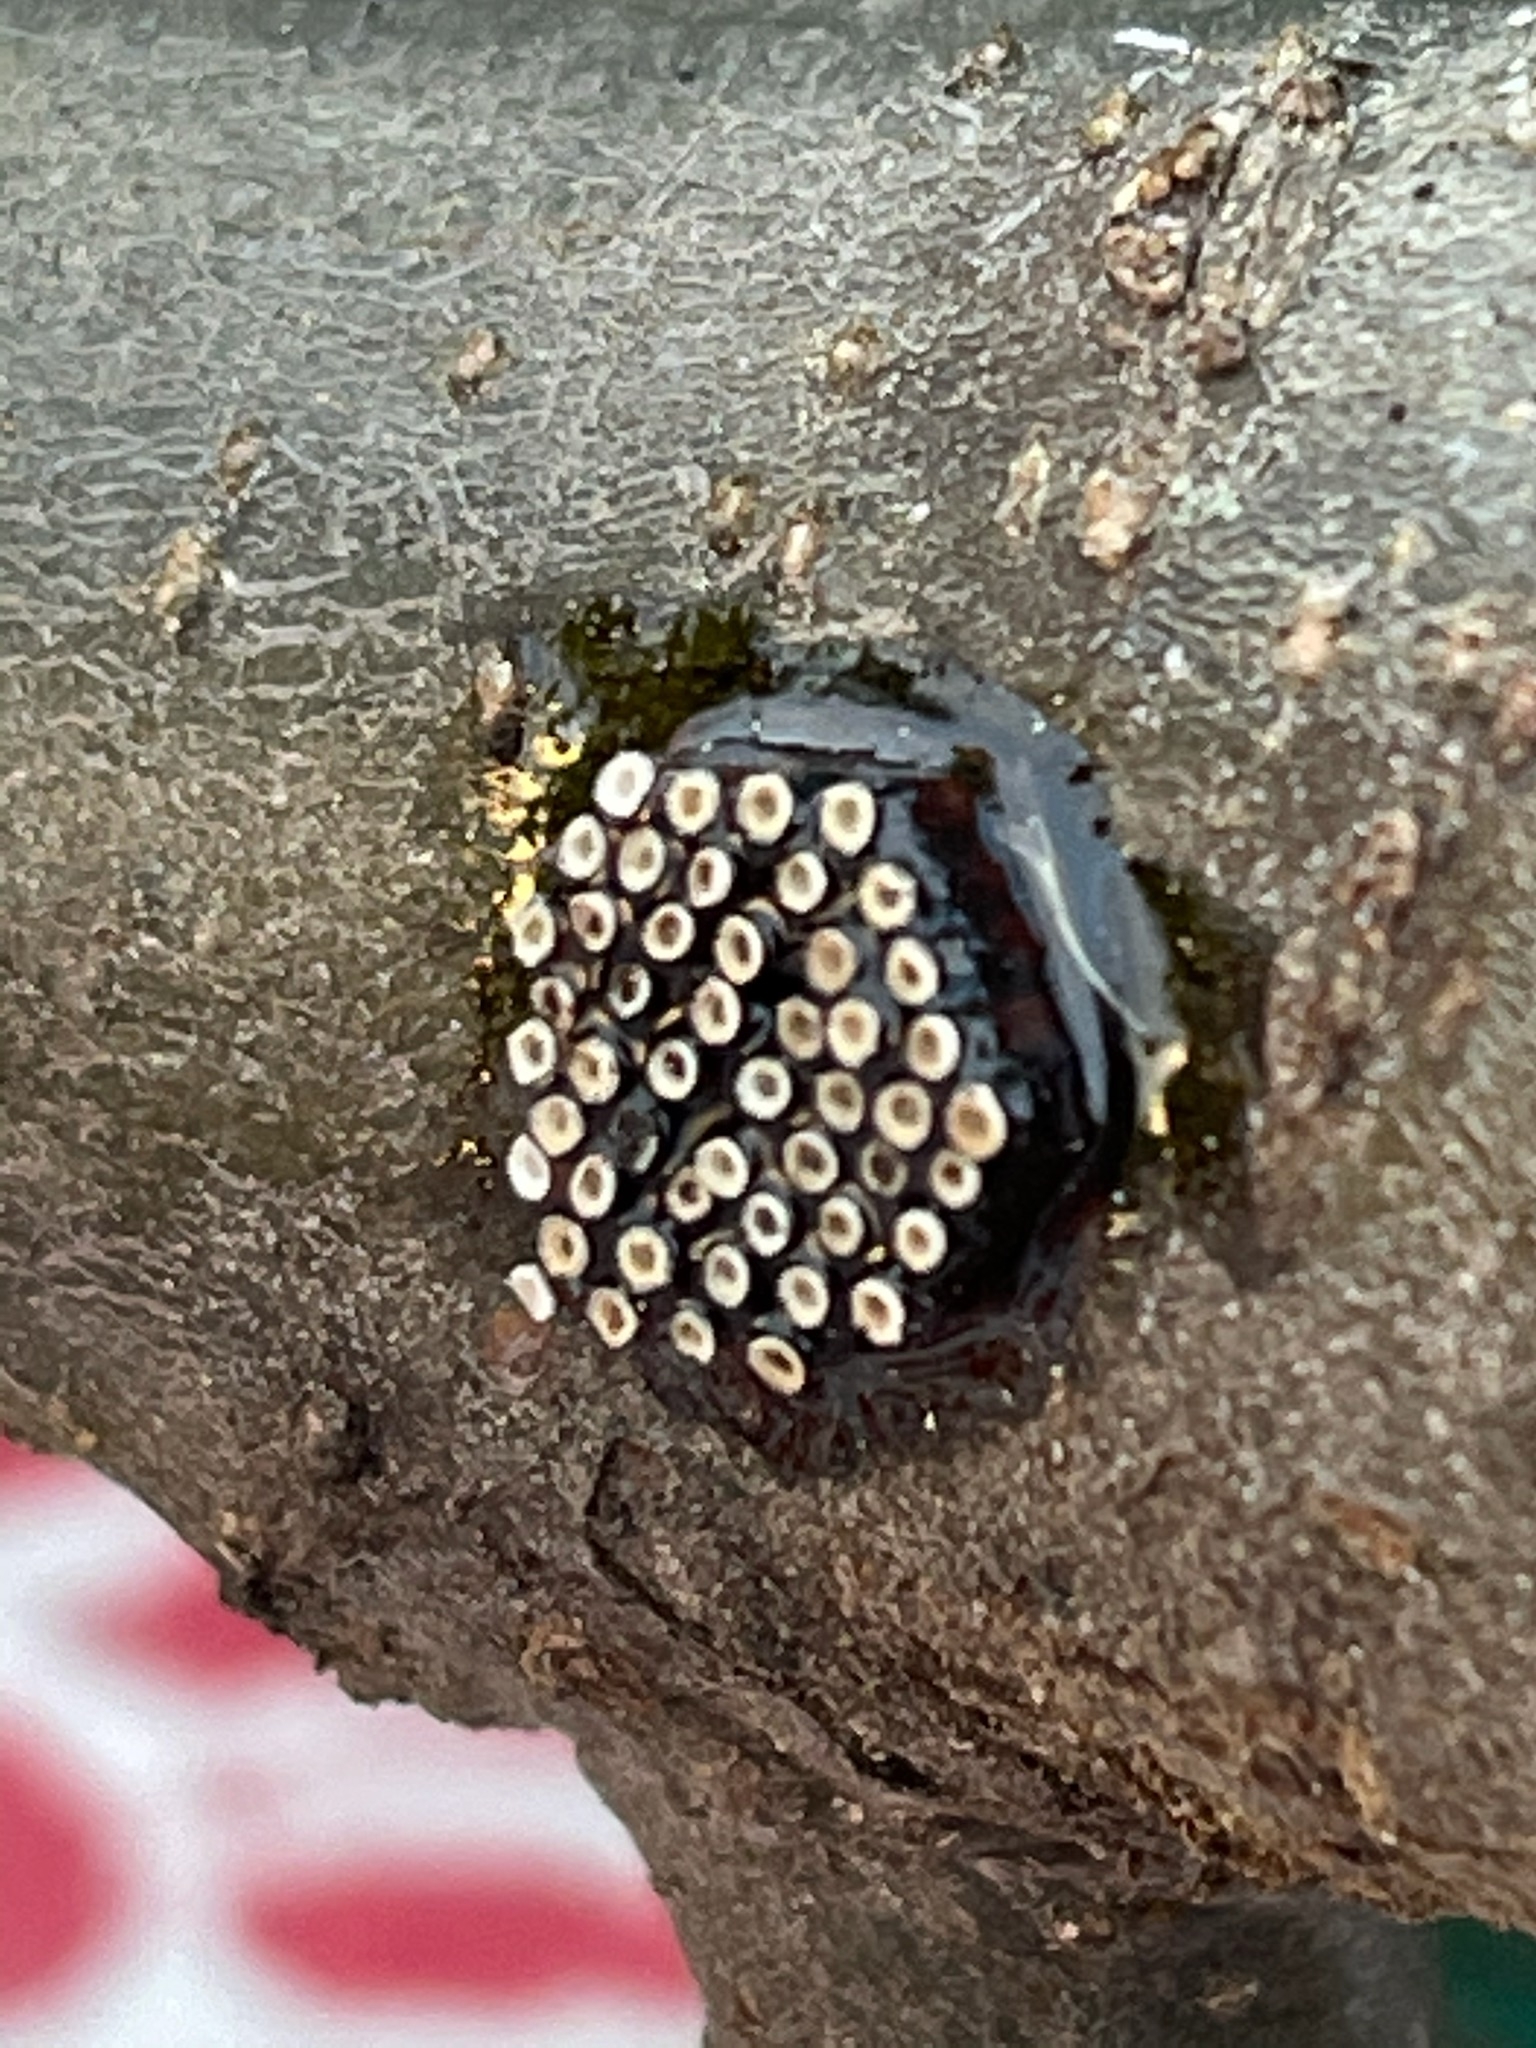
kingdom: Animalia
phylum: Arthropoda
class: Insecta
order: Hemiptera
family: Reduviidae
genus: Arilus
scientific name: Arilus cristatus
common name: North american wheel bug
